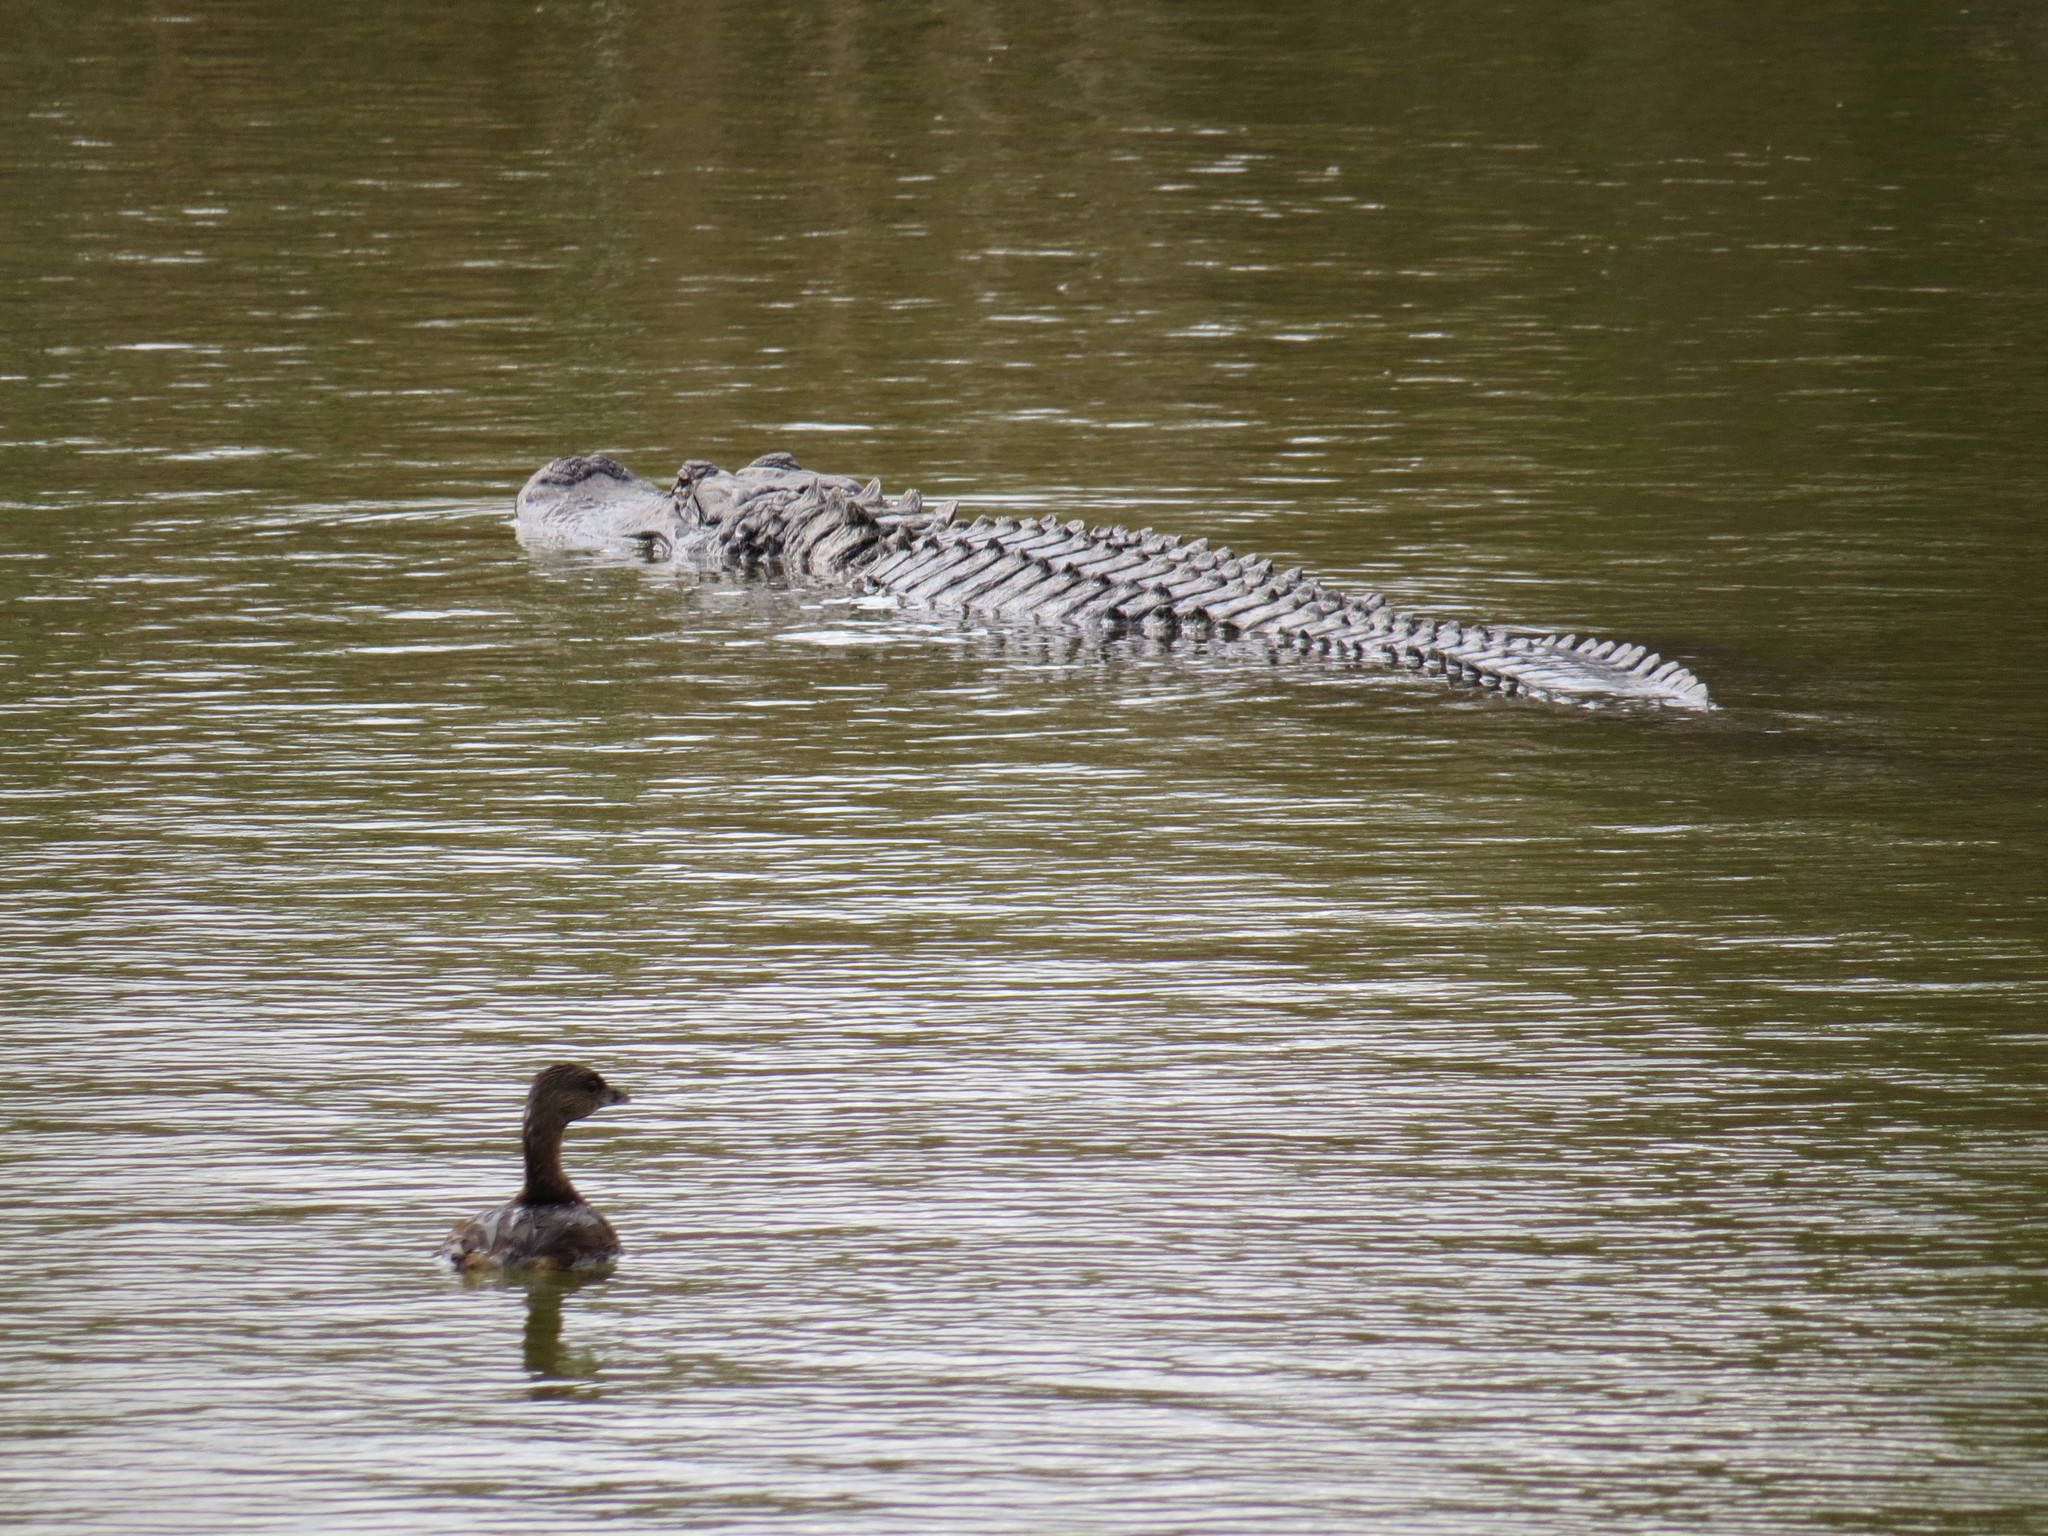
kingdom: Animalia
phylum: Chordata
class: Aves
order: Podicipediformes
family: Podicipedidae
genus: Podilymbus
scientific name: Podilymbus podiceps
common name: Pied-billed grebe
